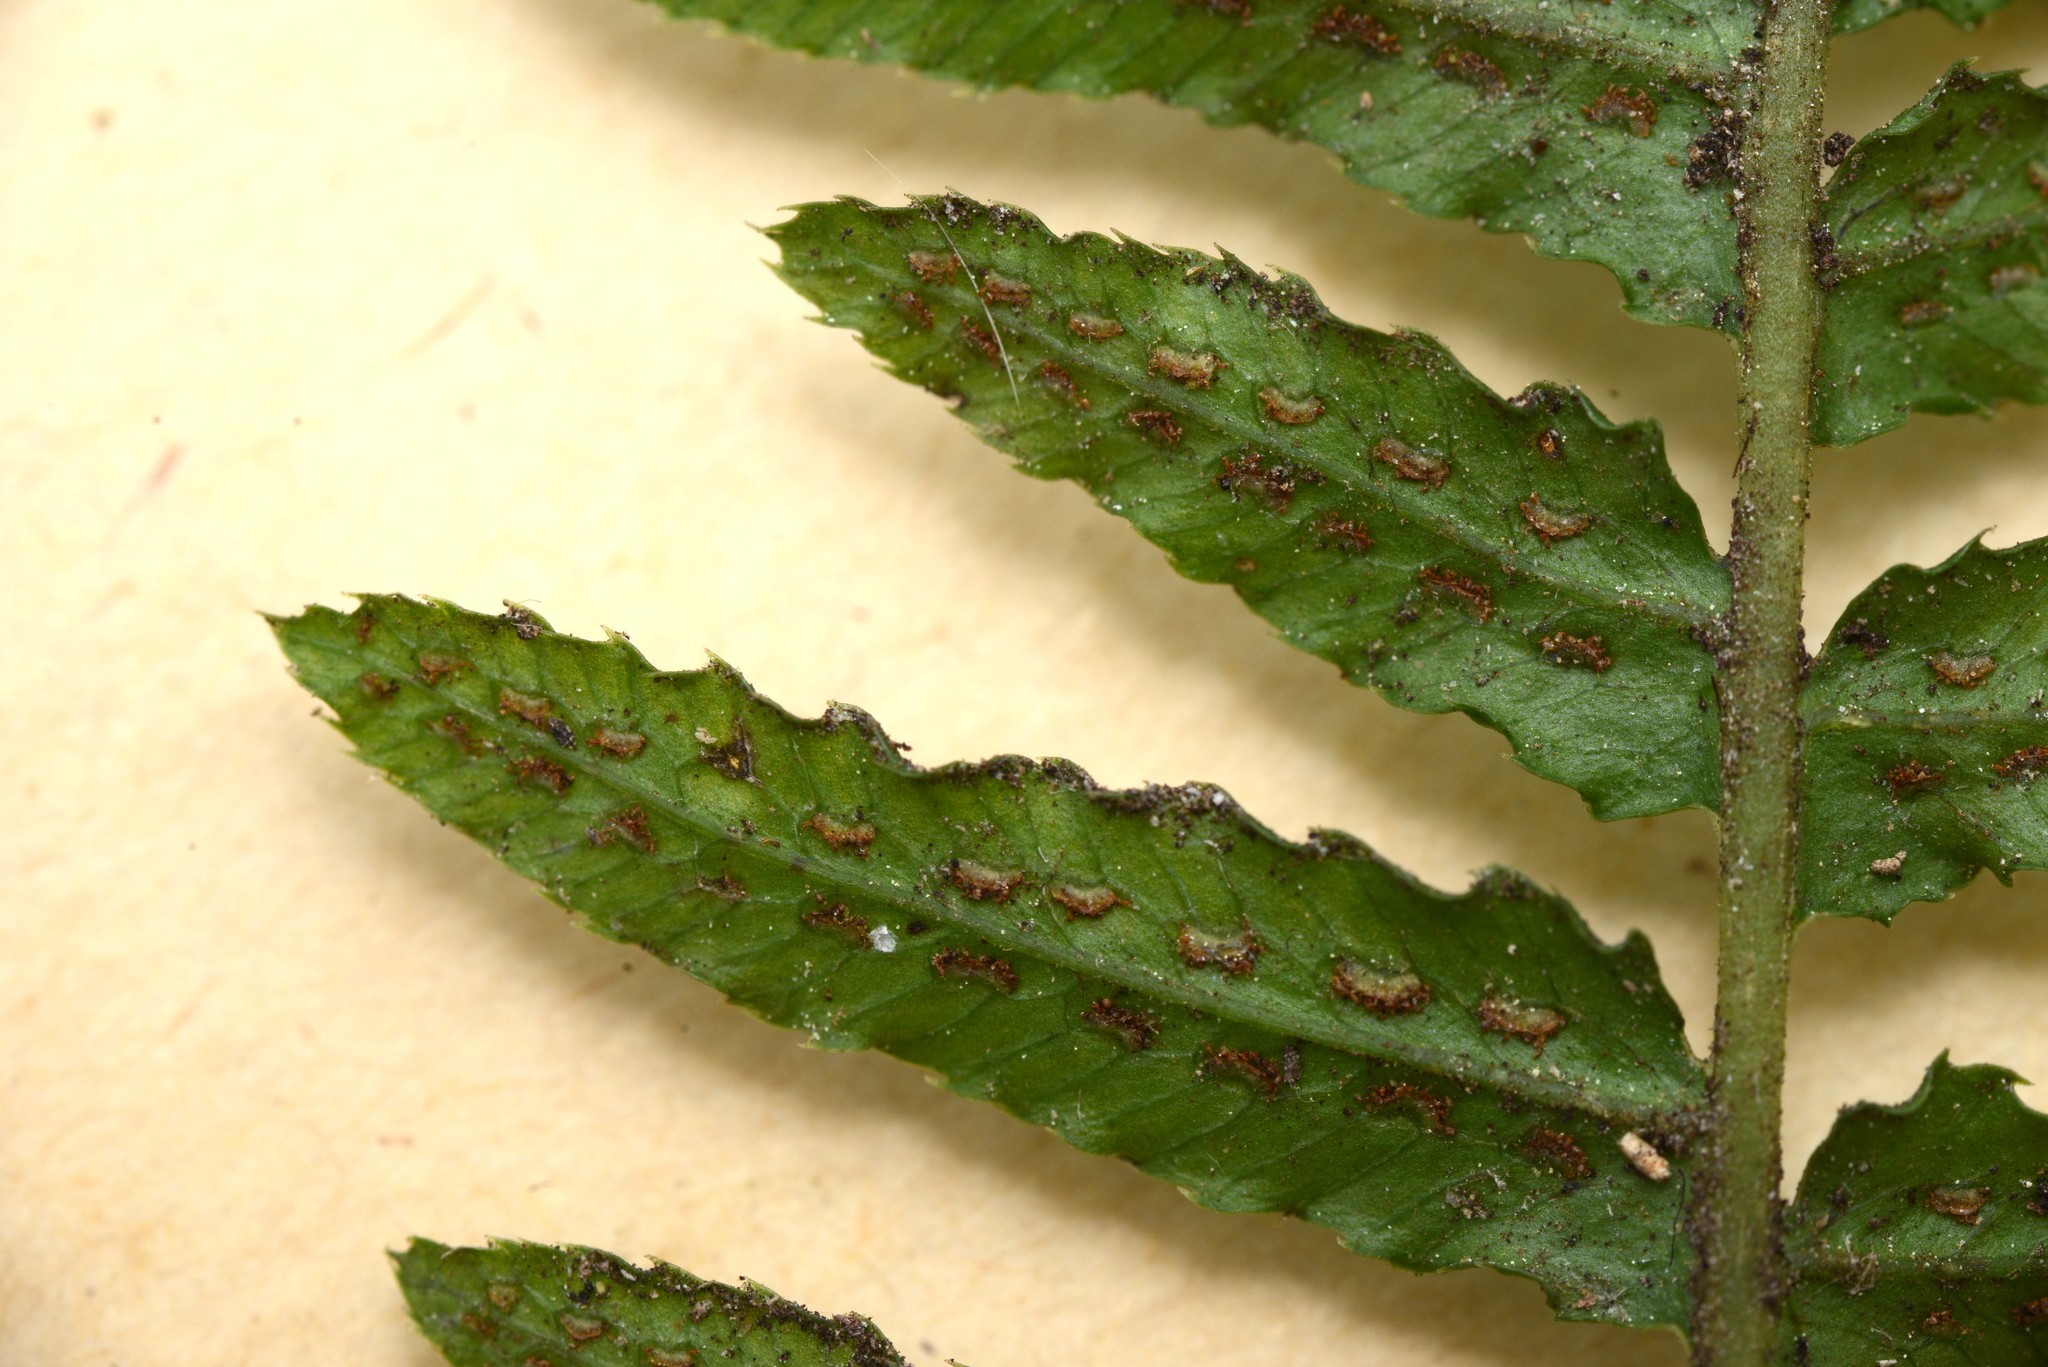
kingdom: Plantae
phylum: Tracheophyta
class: Polypodiopsida
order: Polypodiales
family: Blechnaceae
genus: Doodia
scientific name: Doodia australis
